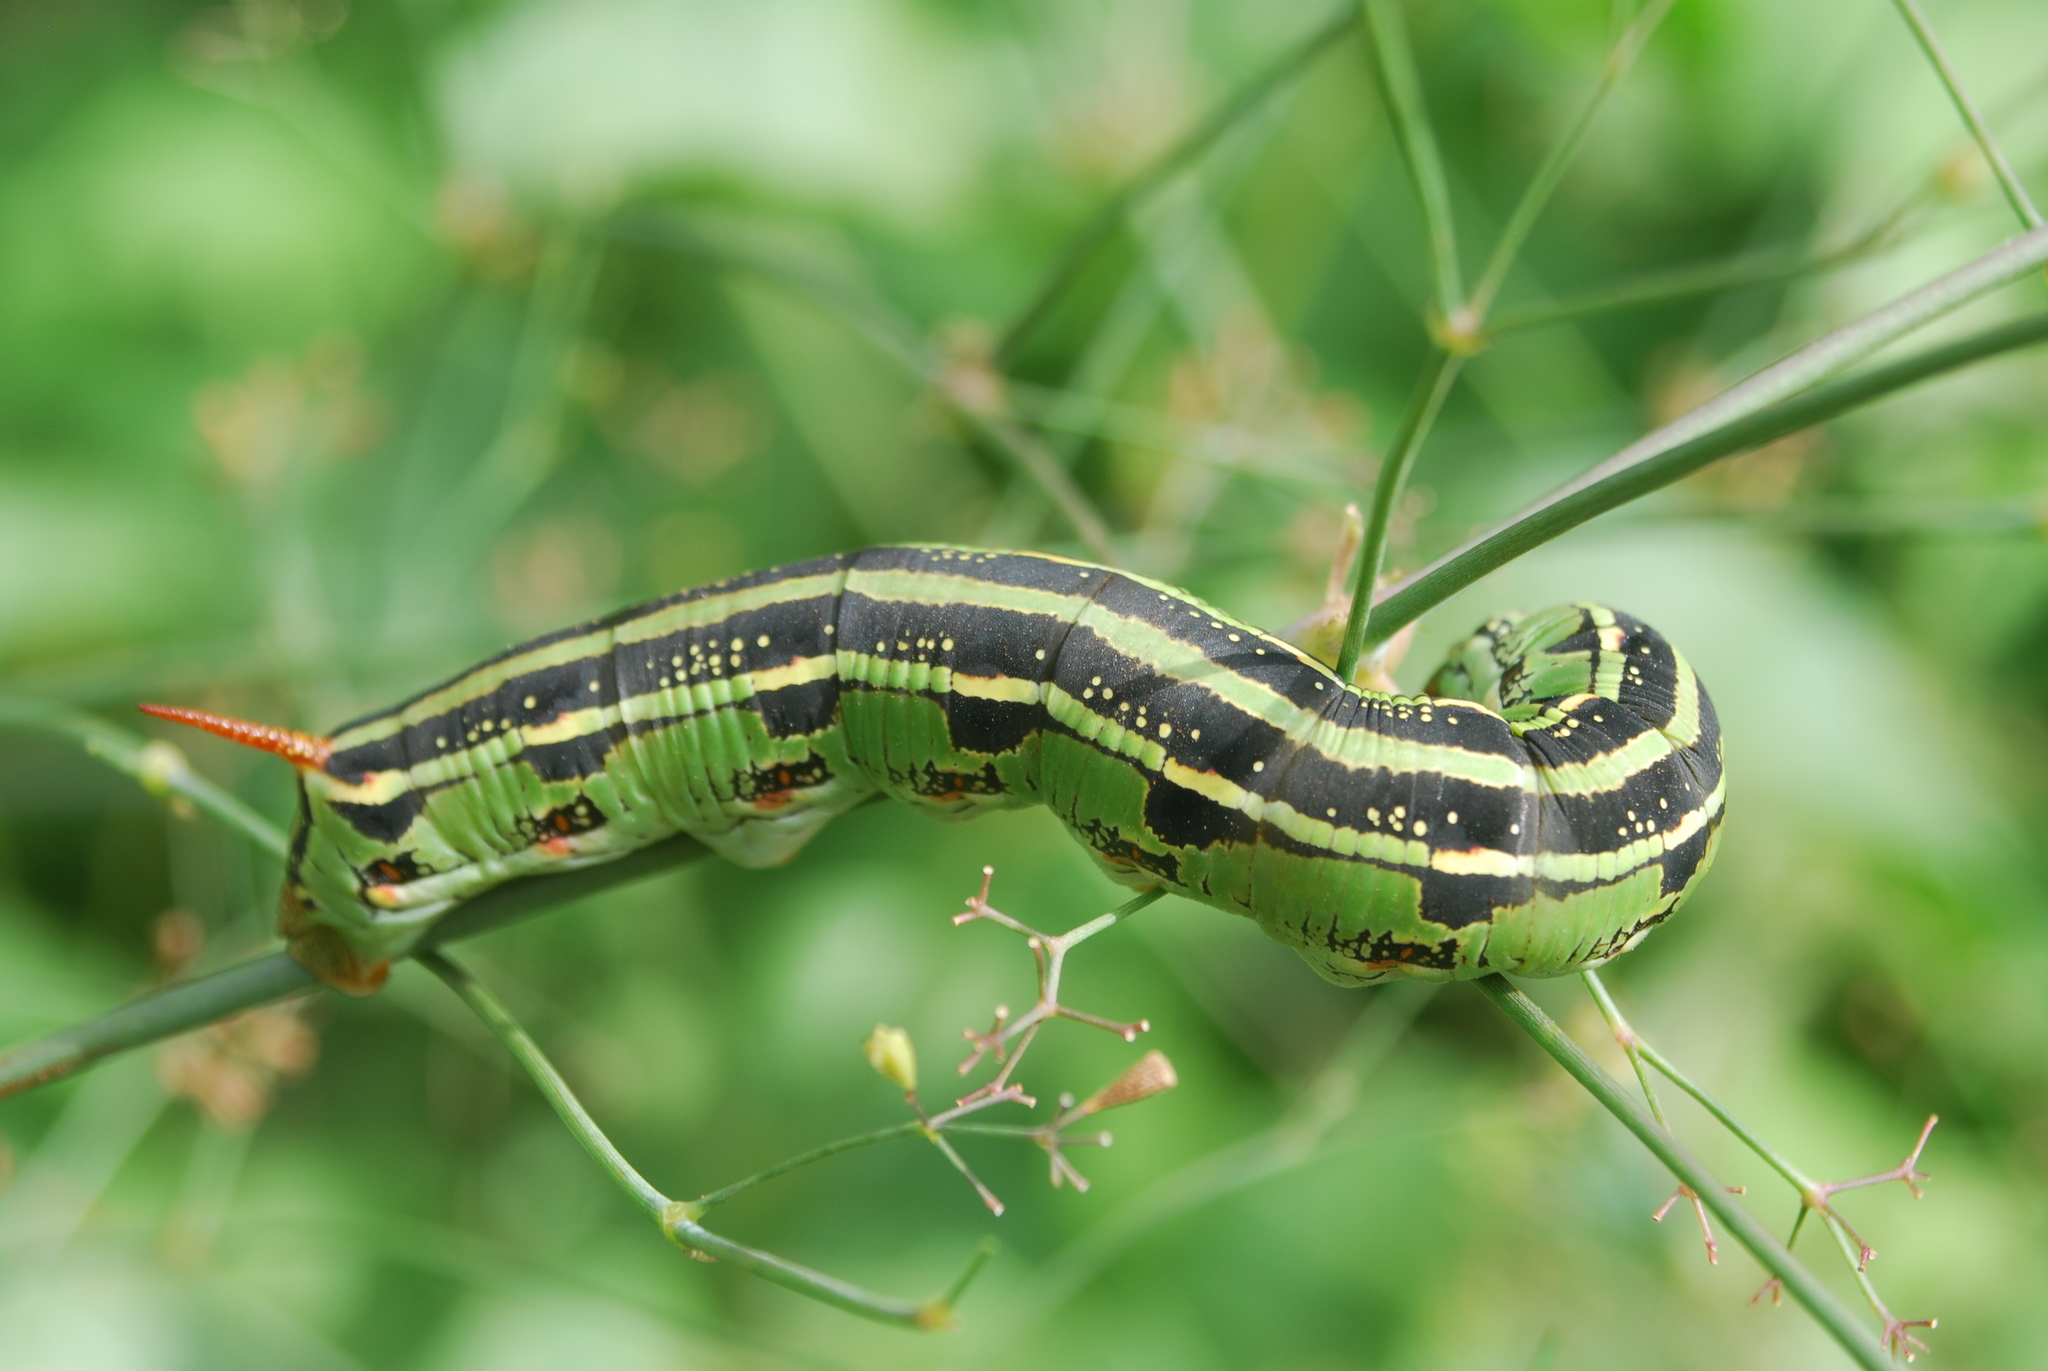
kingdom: Animalia
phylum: Arthropoda
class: Insecta
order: Lepidoptera
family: Sphingidae
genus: Hyles
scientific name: Hyles lineata
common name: White-lined sphinx
